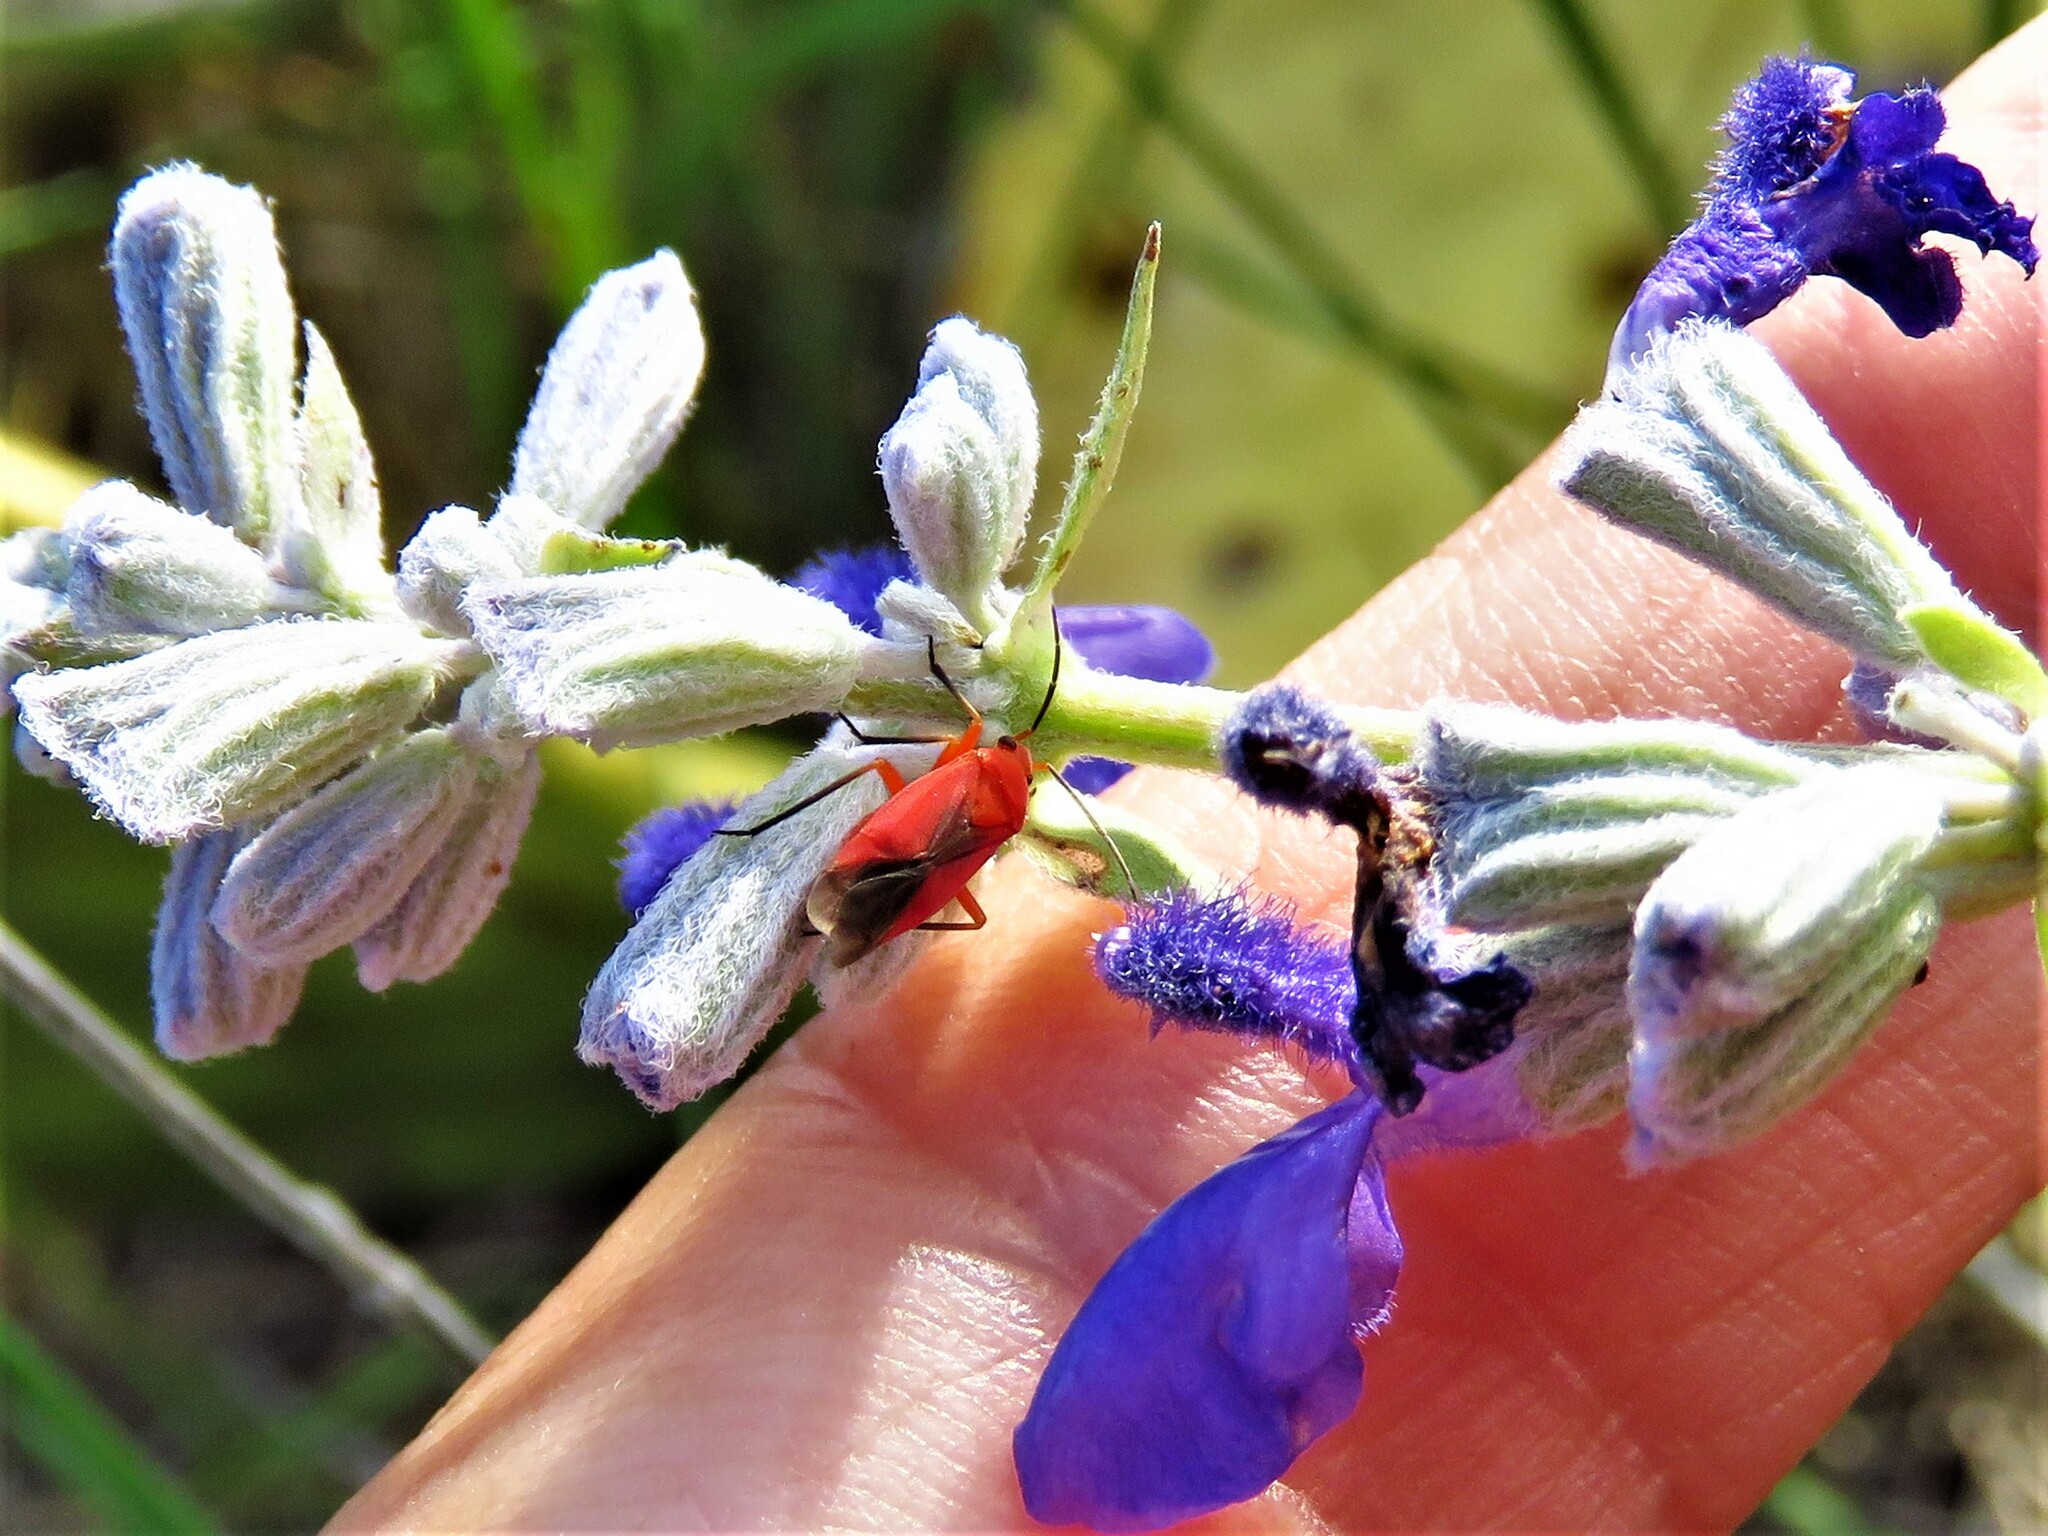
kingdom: Animalia
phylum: Arthropoda
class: Insecta
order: Hemiptera
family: Miridae
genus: Oncerometopus
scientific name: Oncerometopus nigriclavus
